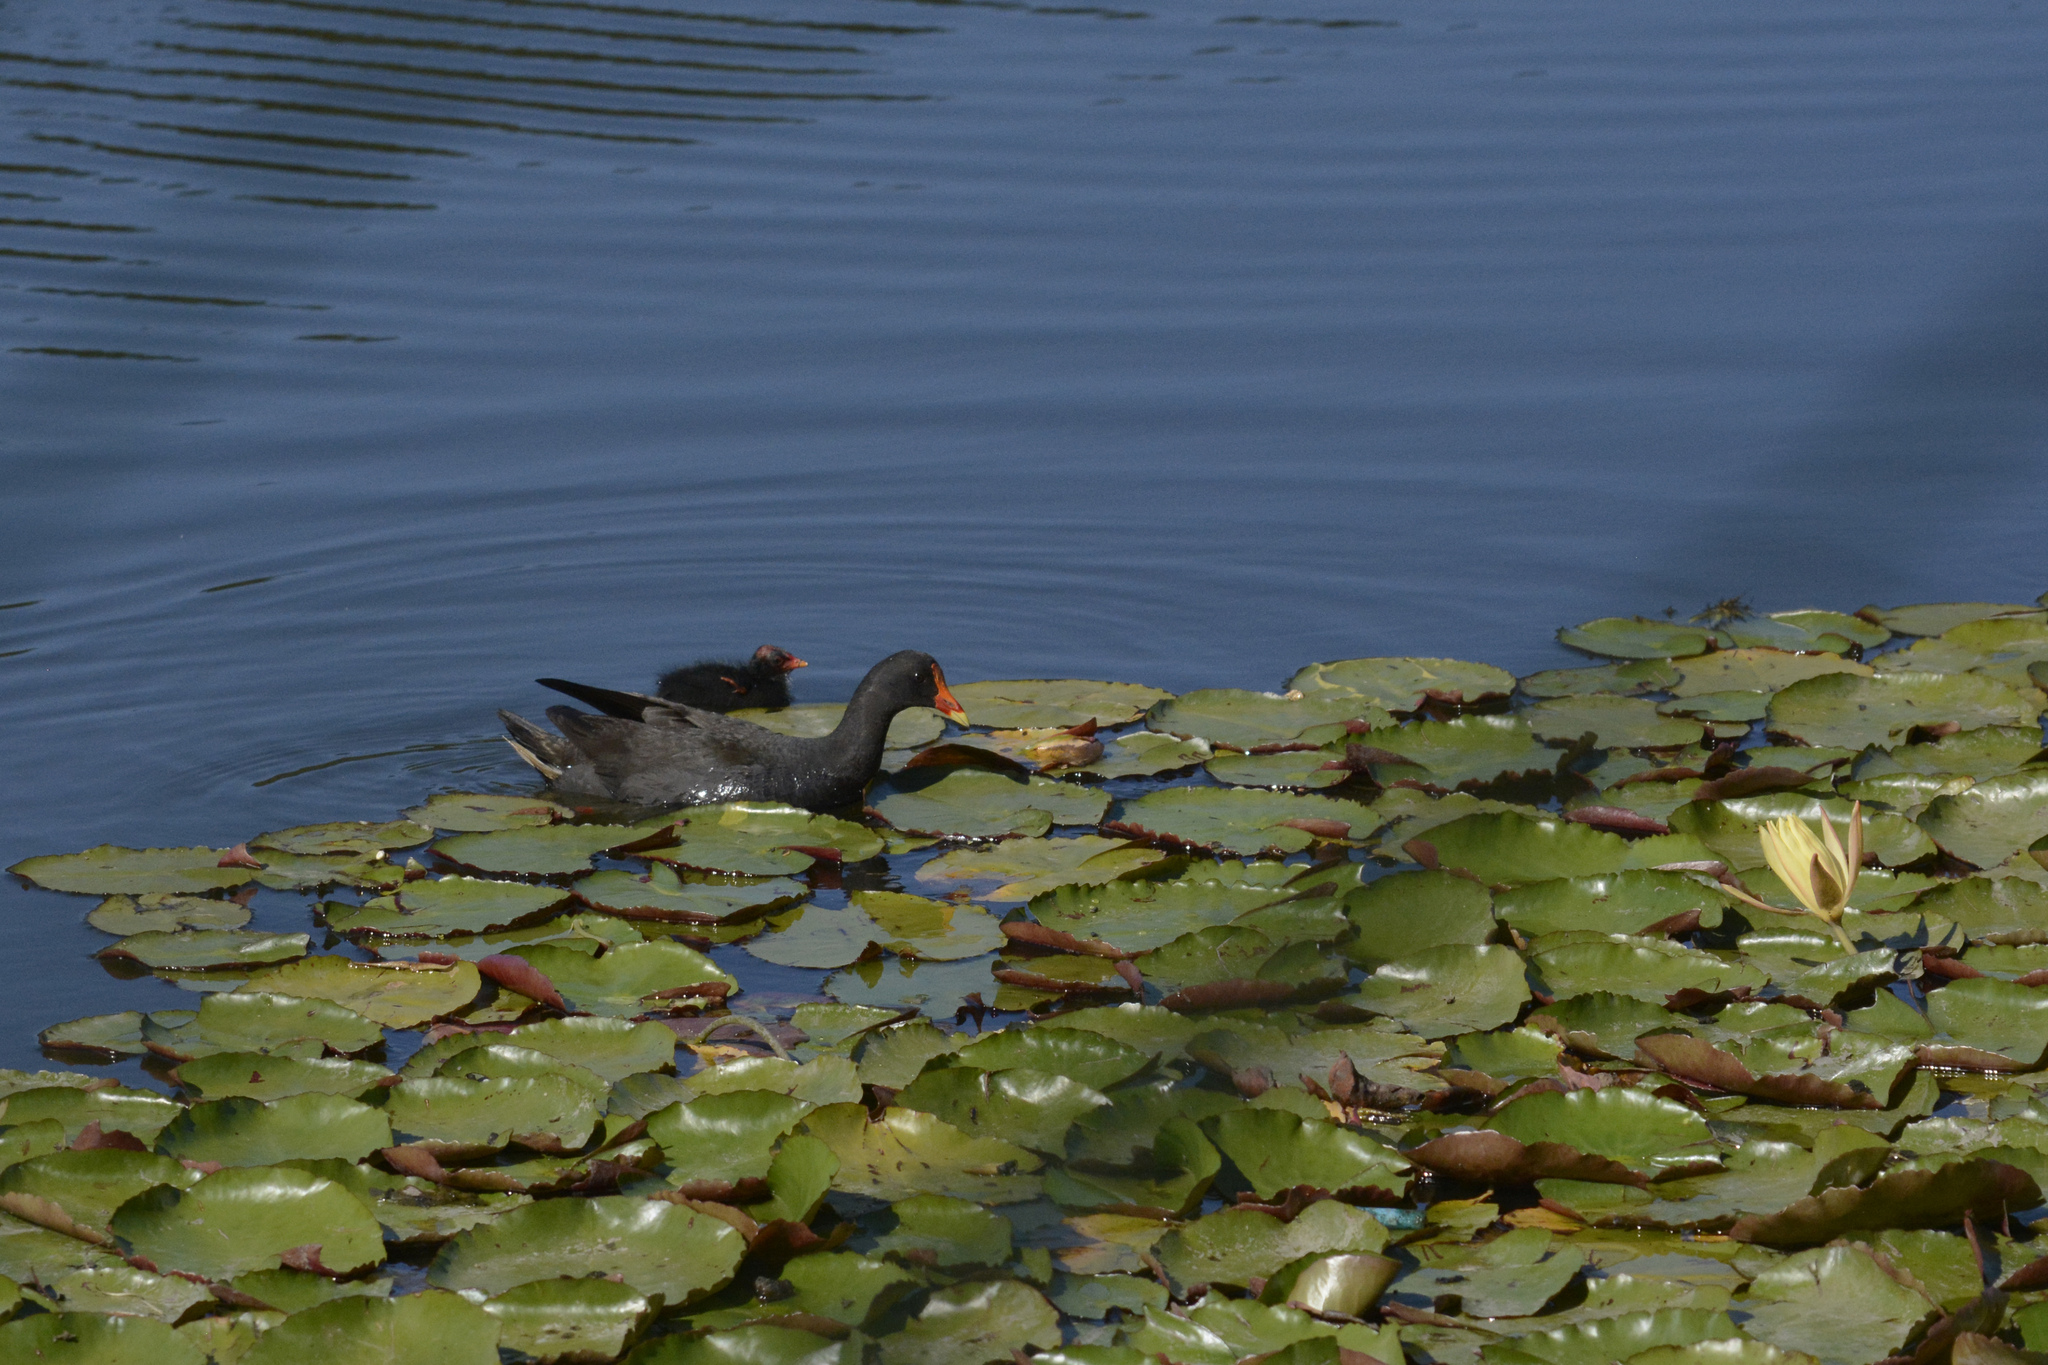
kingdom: Animalia
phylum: Chordata
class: Aves
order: Gruiformes
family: Rallidae
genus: Gallinula
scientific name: Gallinula tenebrosa
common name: Dusky moorhen
